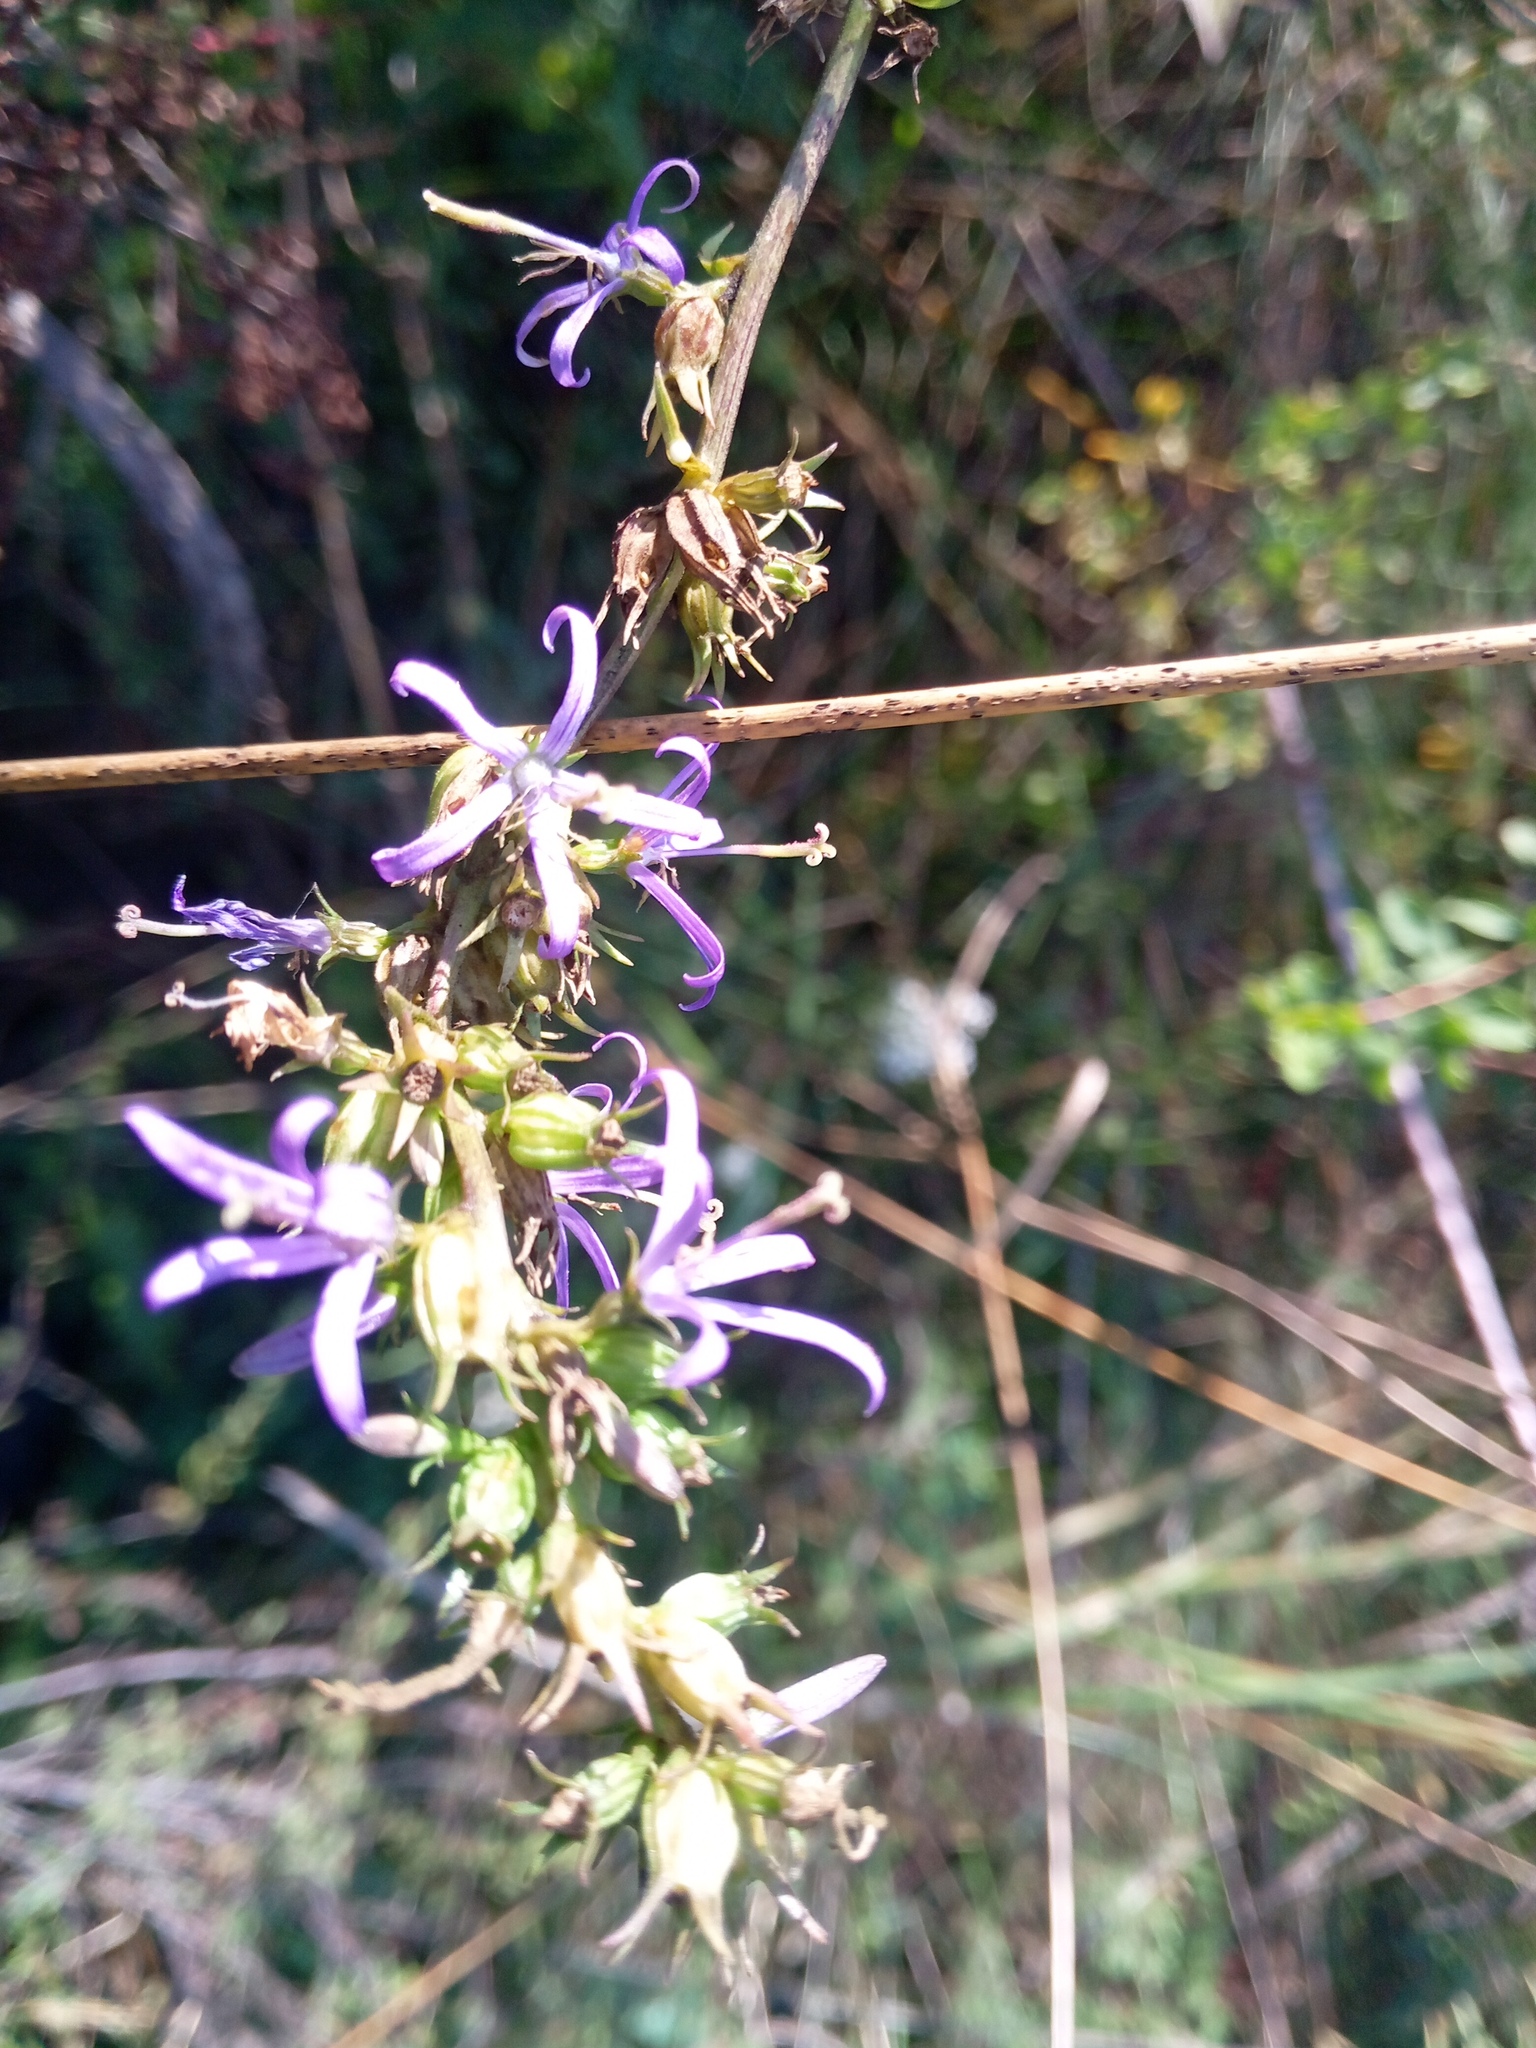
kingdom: Plantae
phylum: Tracheophyta
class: Magnoliopsida
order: Asterales
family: Campanulaceae
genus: Asyneuma
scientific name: Asyneuma canescens
